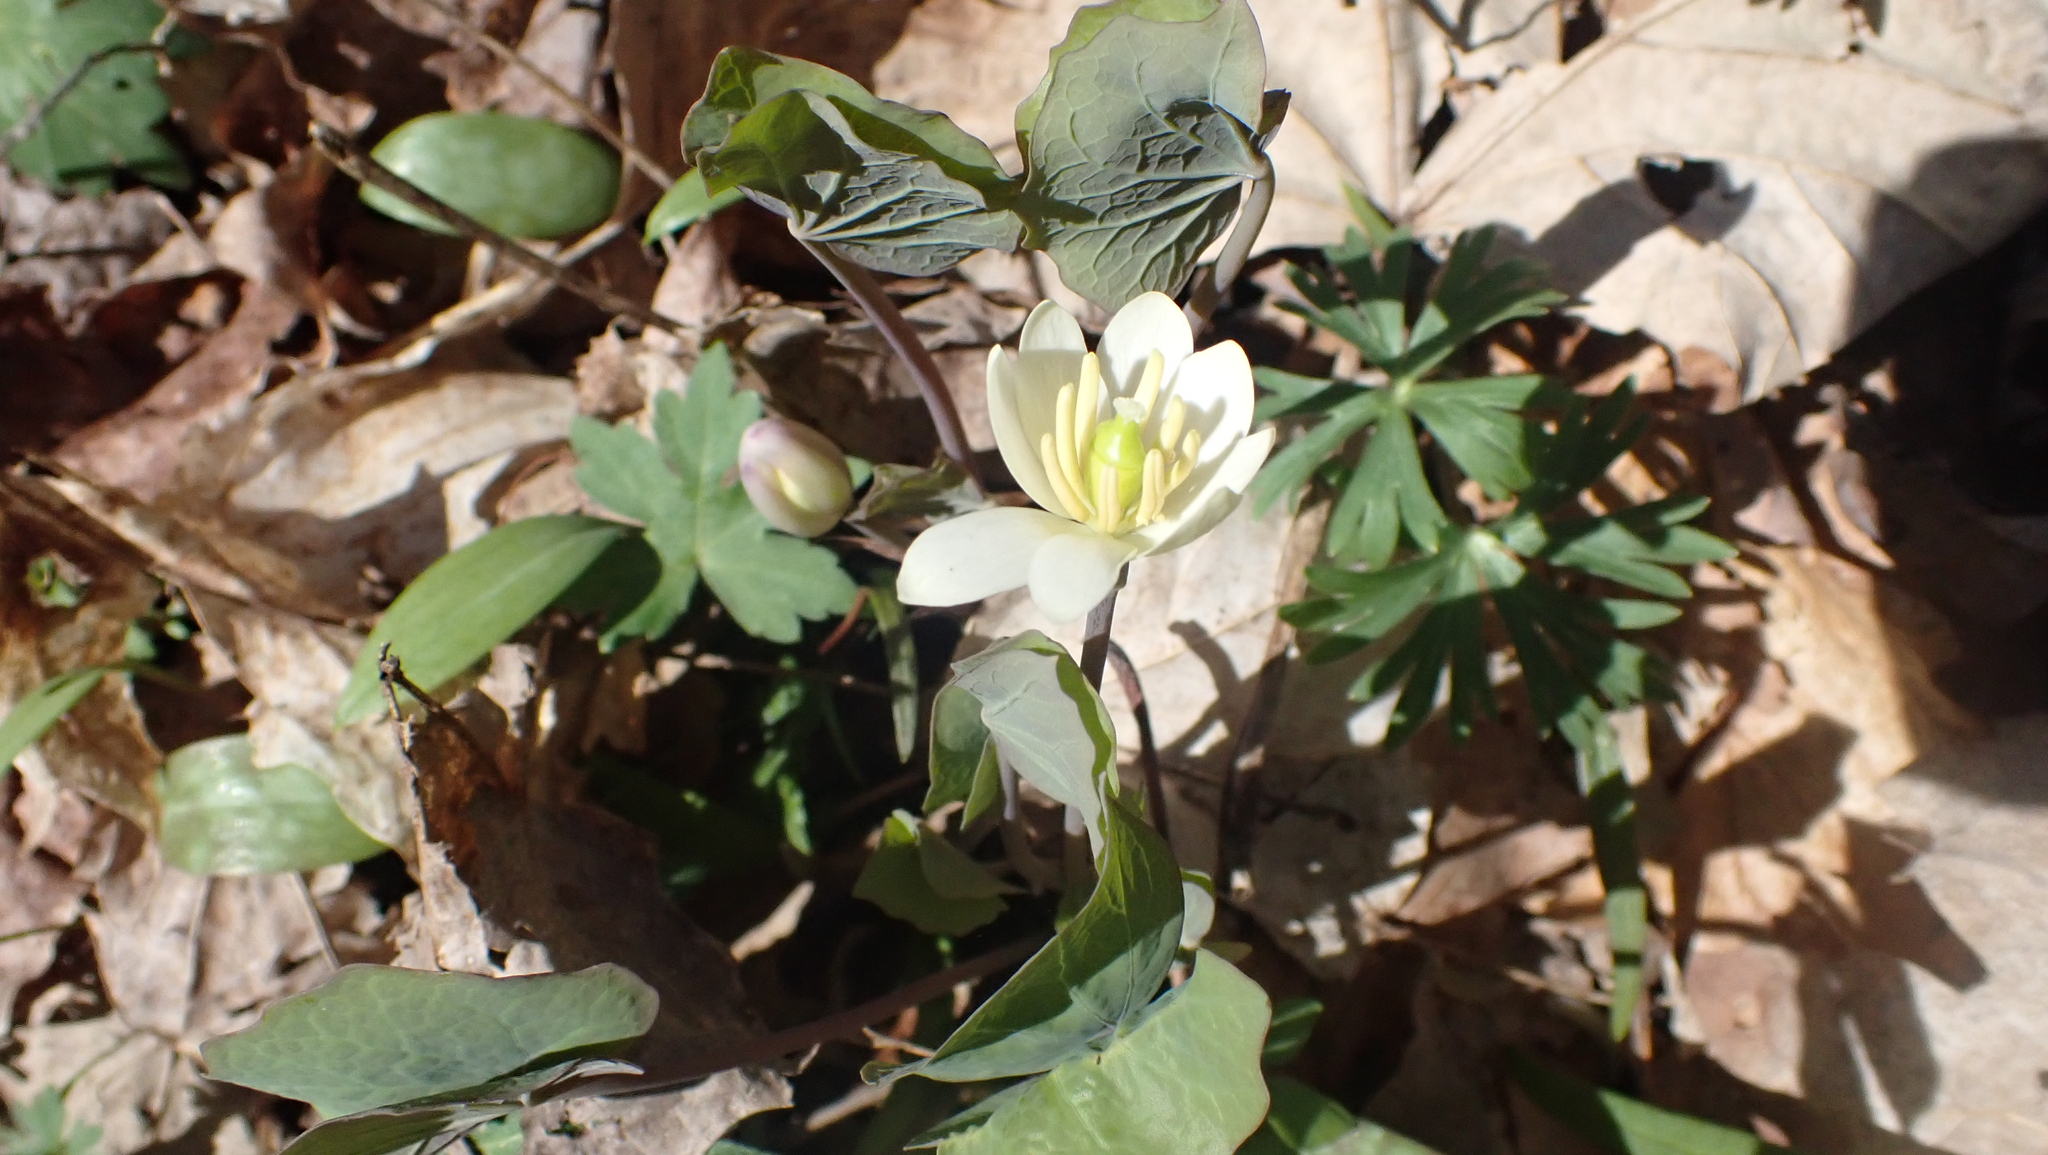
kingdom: Plantae
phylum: Tracheophyta
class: Magnoliopsida
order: Ranunculales
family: Berberidaceae
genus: Jeffersonia
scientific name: Jeffersonia diphylla
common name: Rheumatism-root
